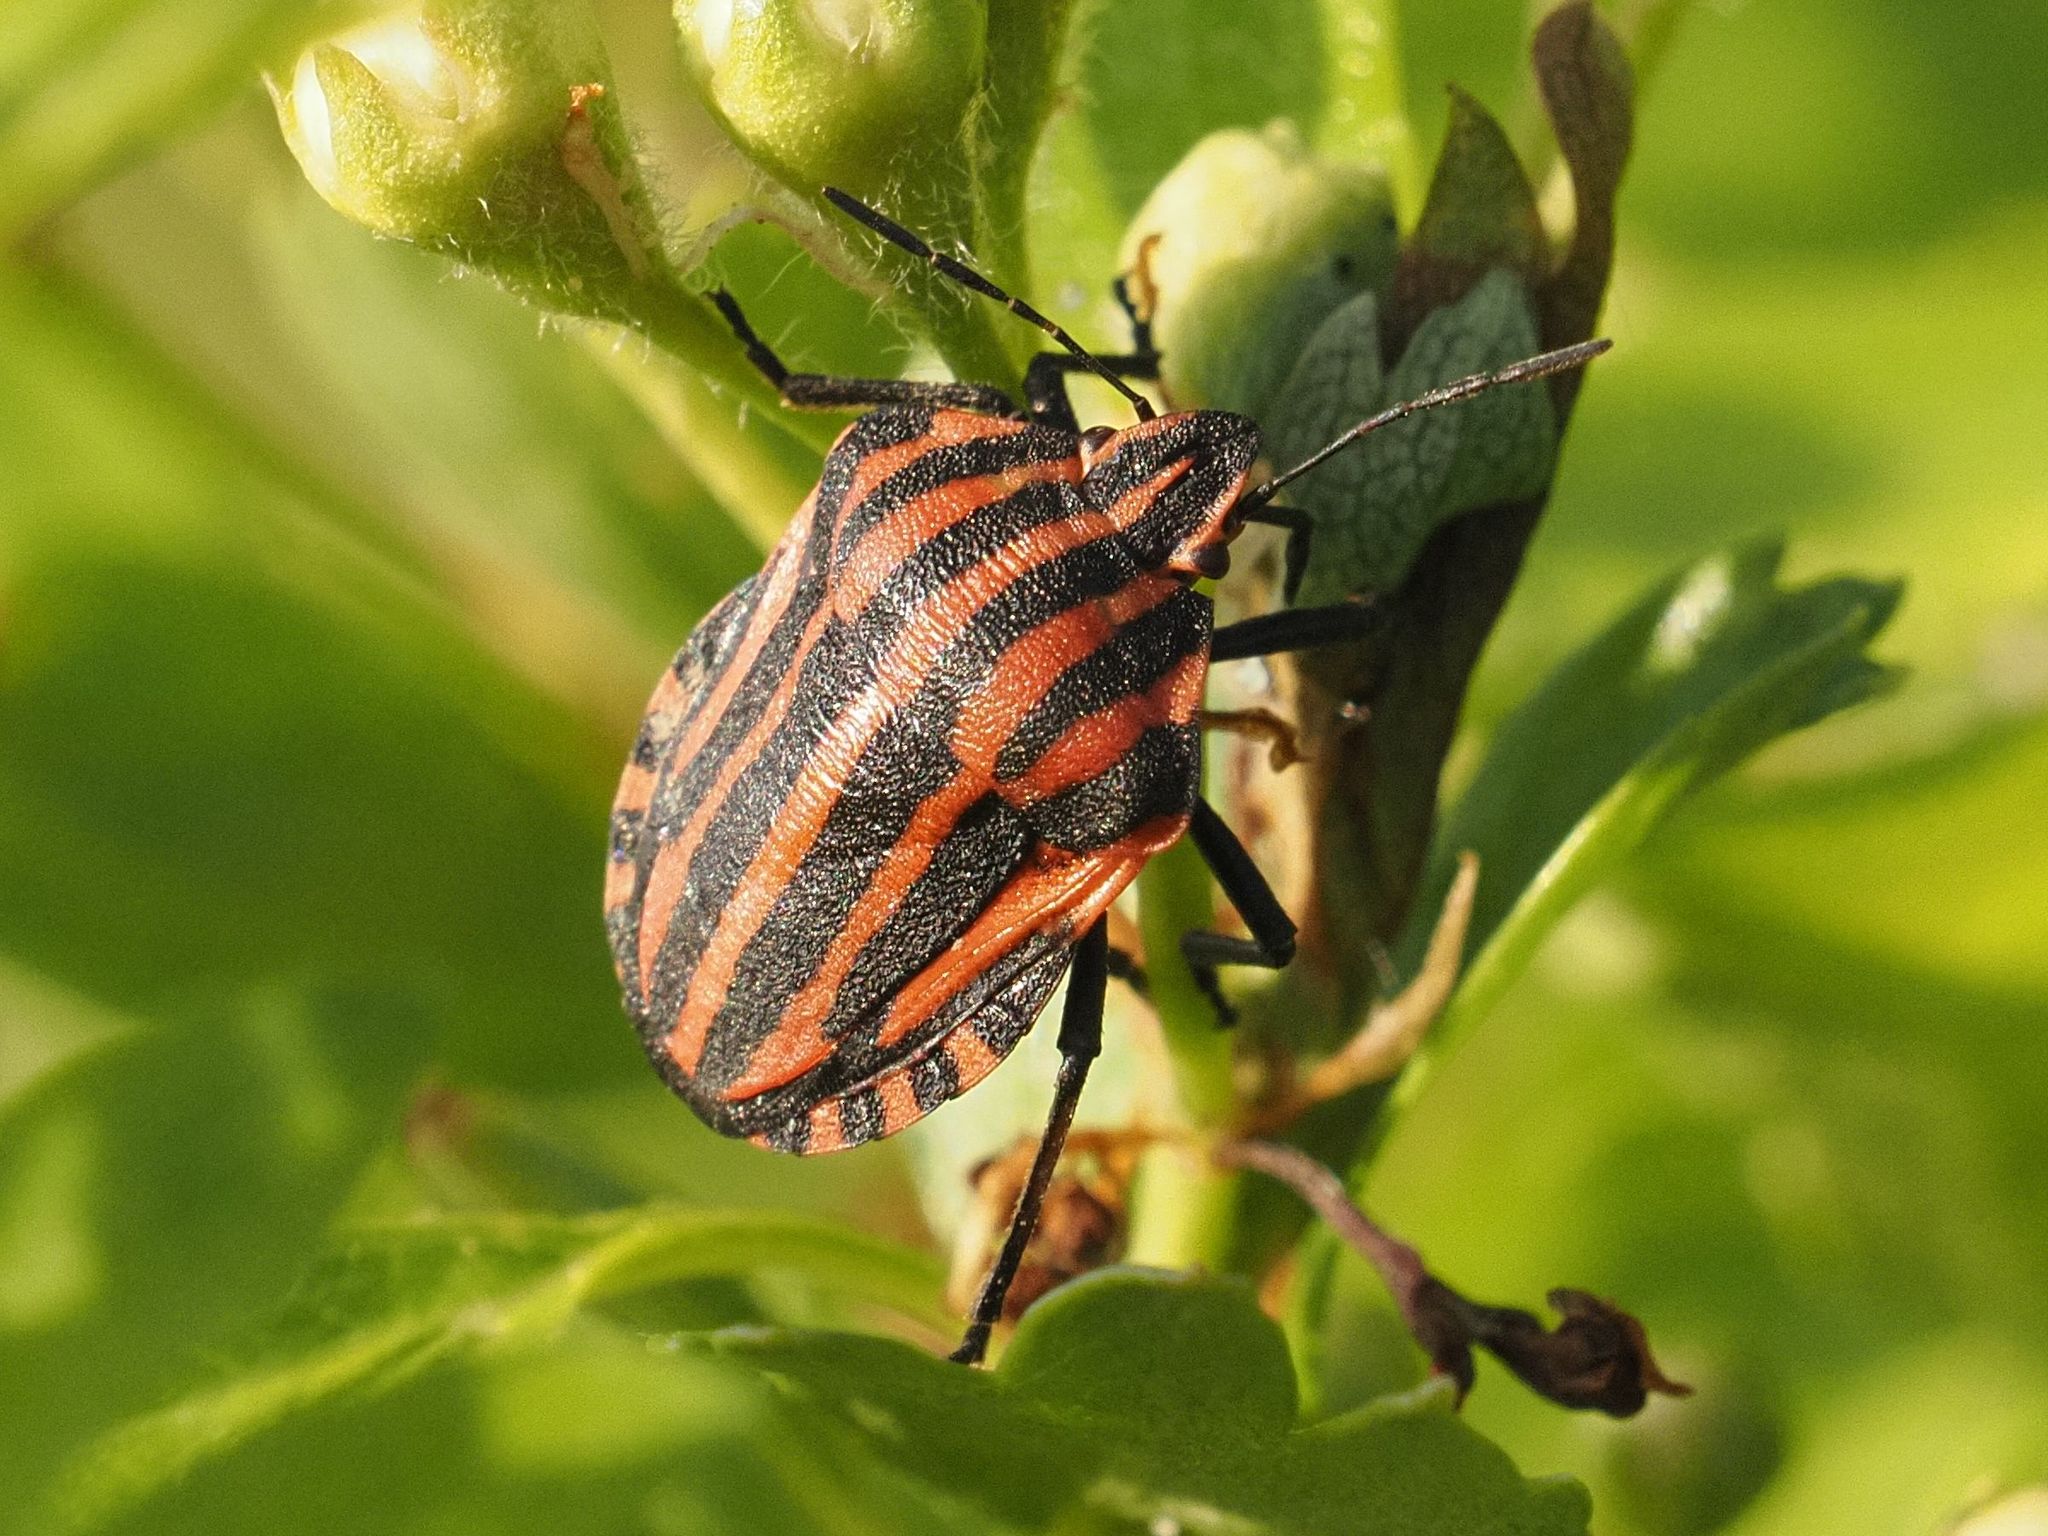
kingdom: Animalia
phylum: Arthropoda
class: Insecta
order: Hemiptera
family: Pentatomidae
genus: Graphosoma
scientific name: Graphosoma italicum
